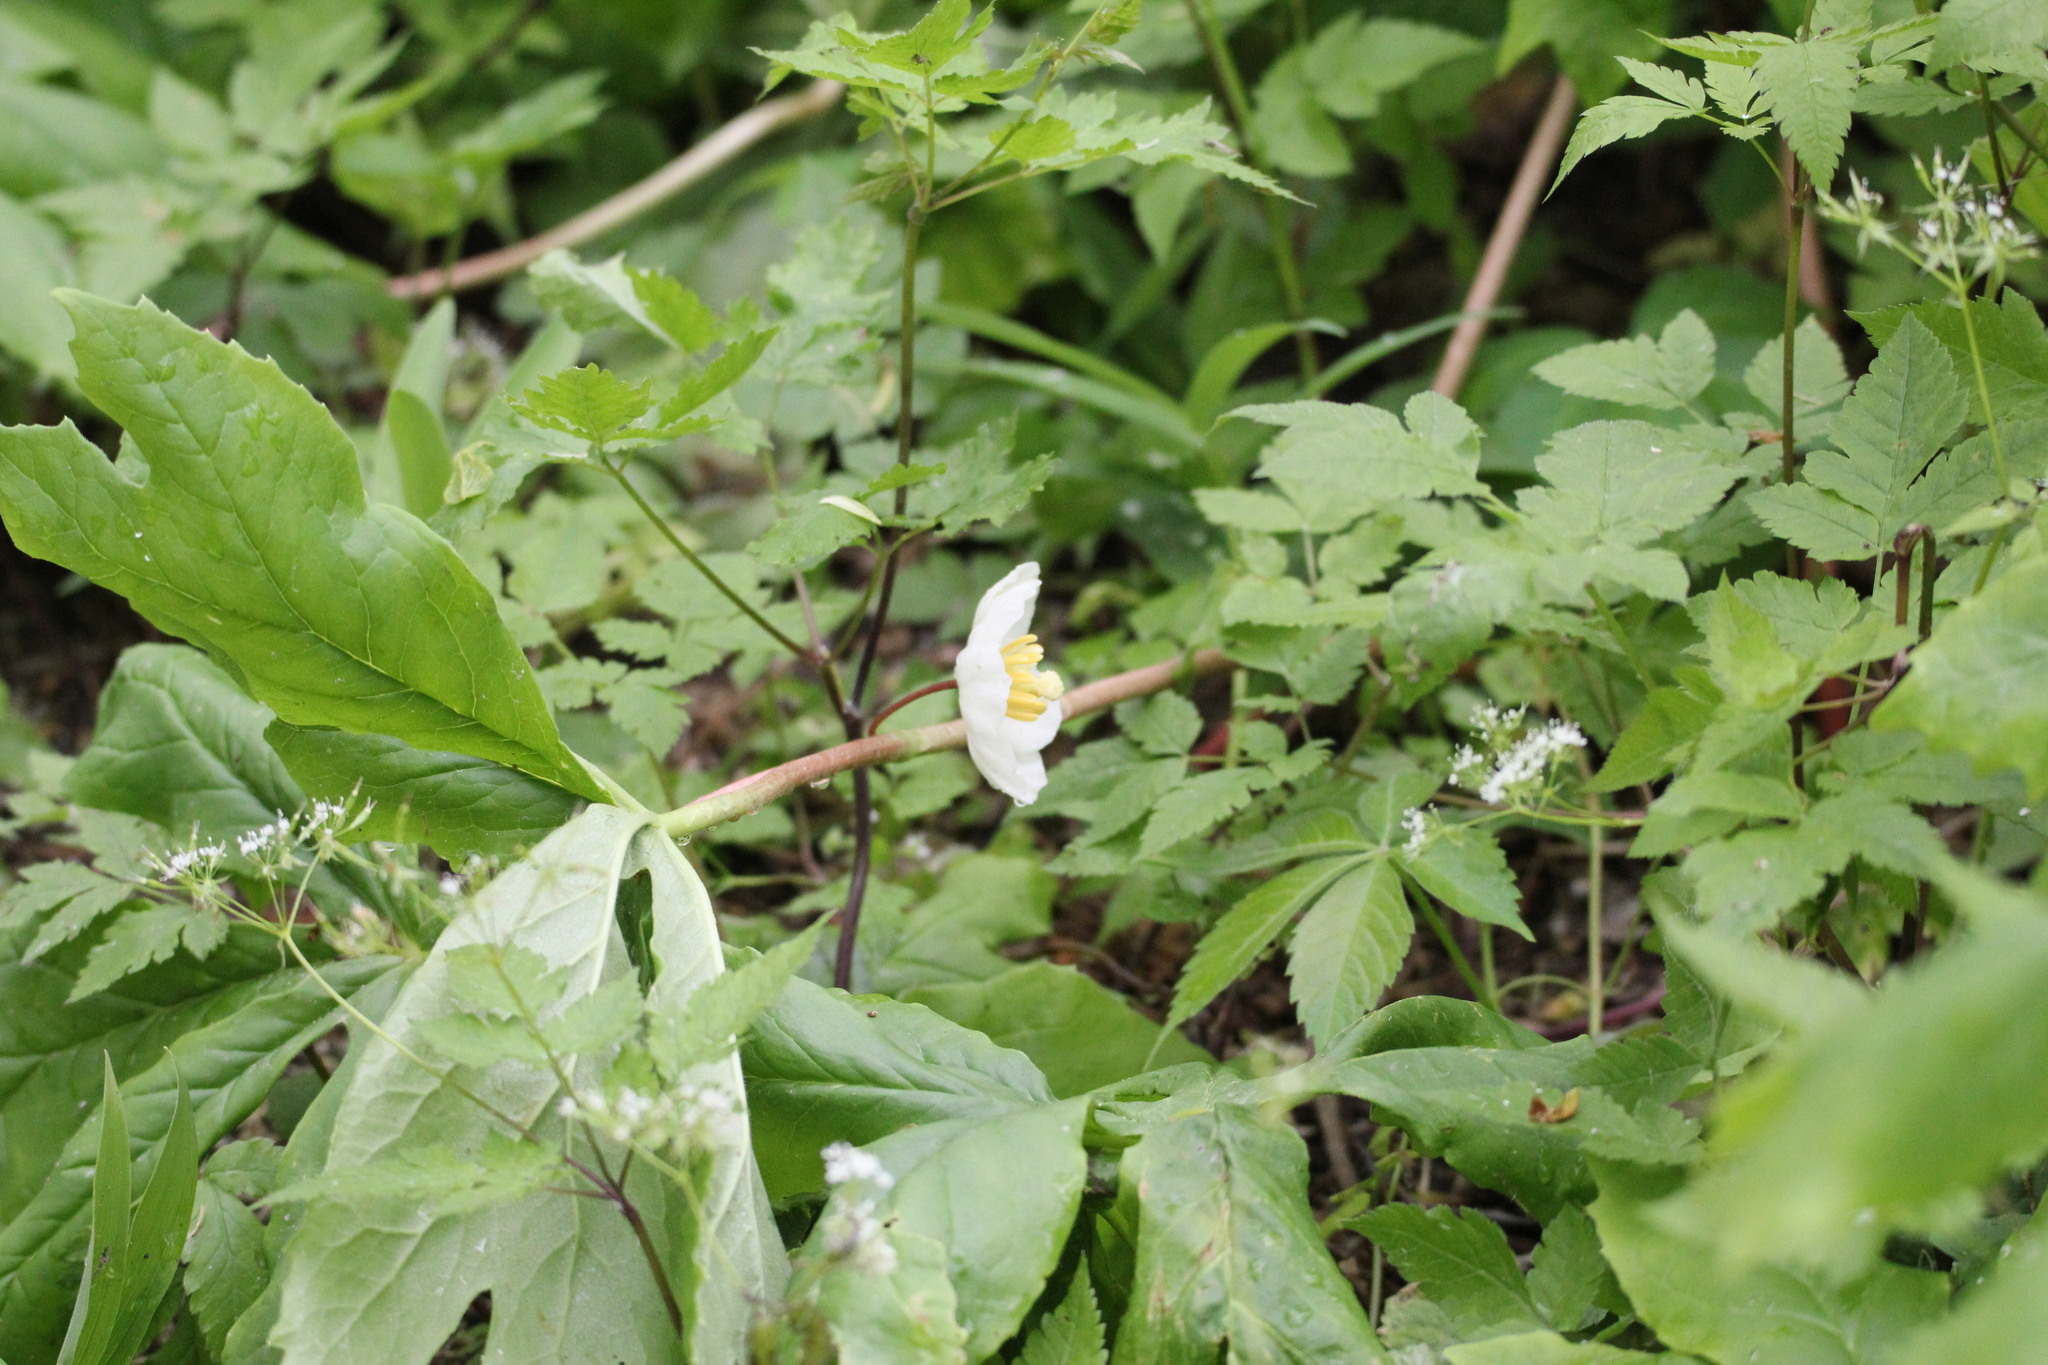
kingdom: Plantae
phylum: Tracheophyta
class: Magnoliopsida
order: Ranunculales
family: Berberidaceae
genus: Podophyllum
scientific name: Podophyllum peltatum
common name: Wild mandrake
